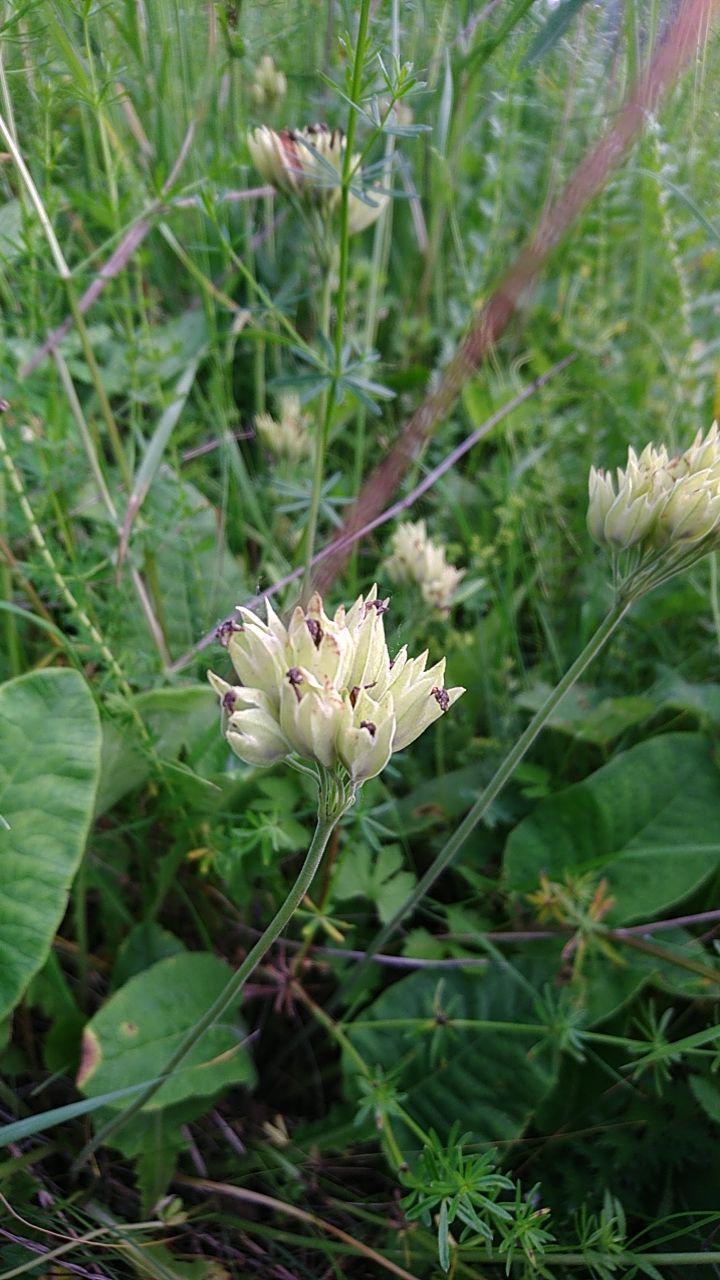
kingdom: Plantae
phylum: Tracheophyta
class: Magnoliopsida
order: Ericales
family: Primulaceae
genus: Primula
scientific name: Primula veris
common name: Cowslip
